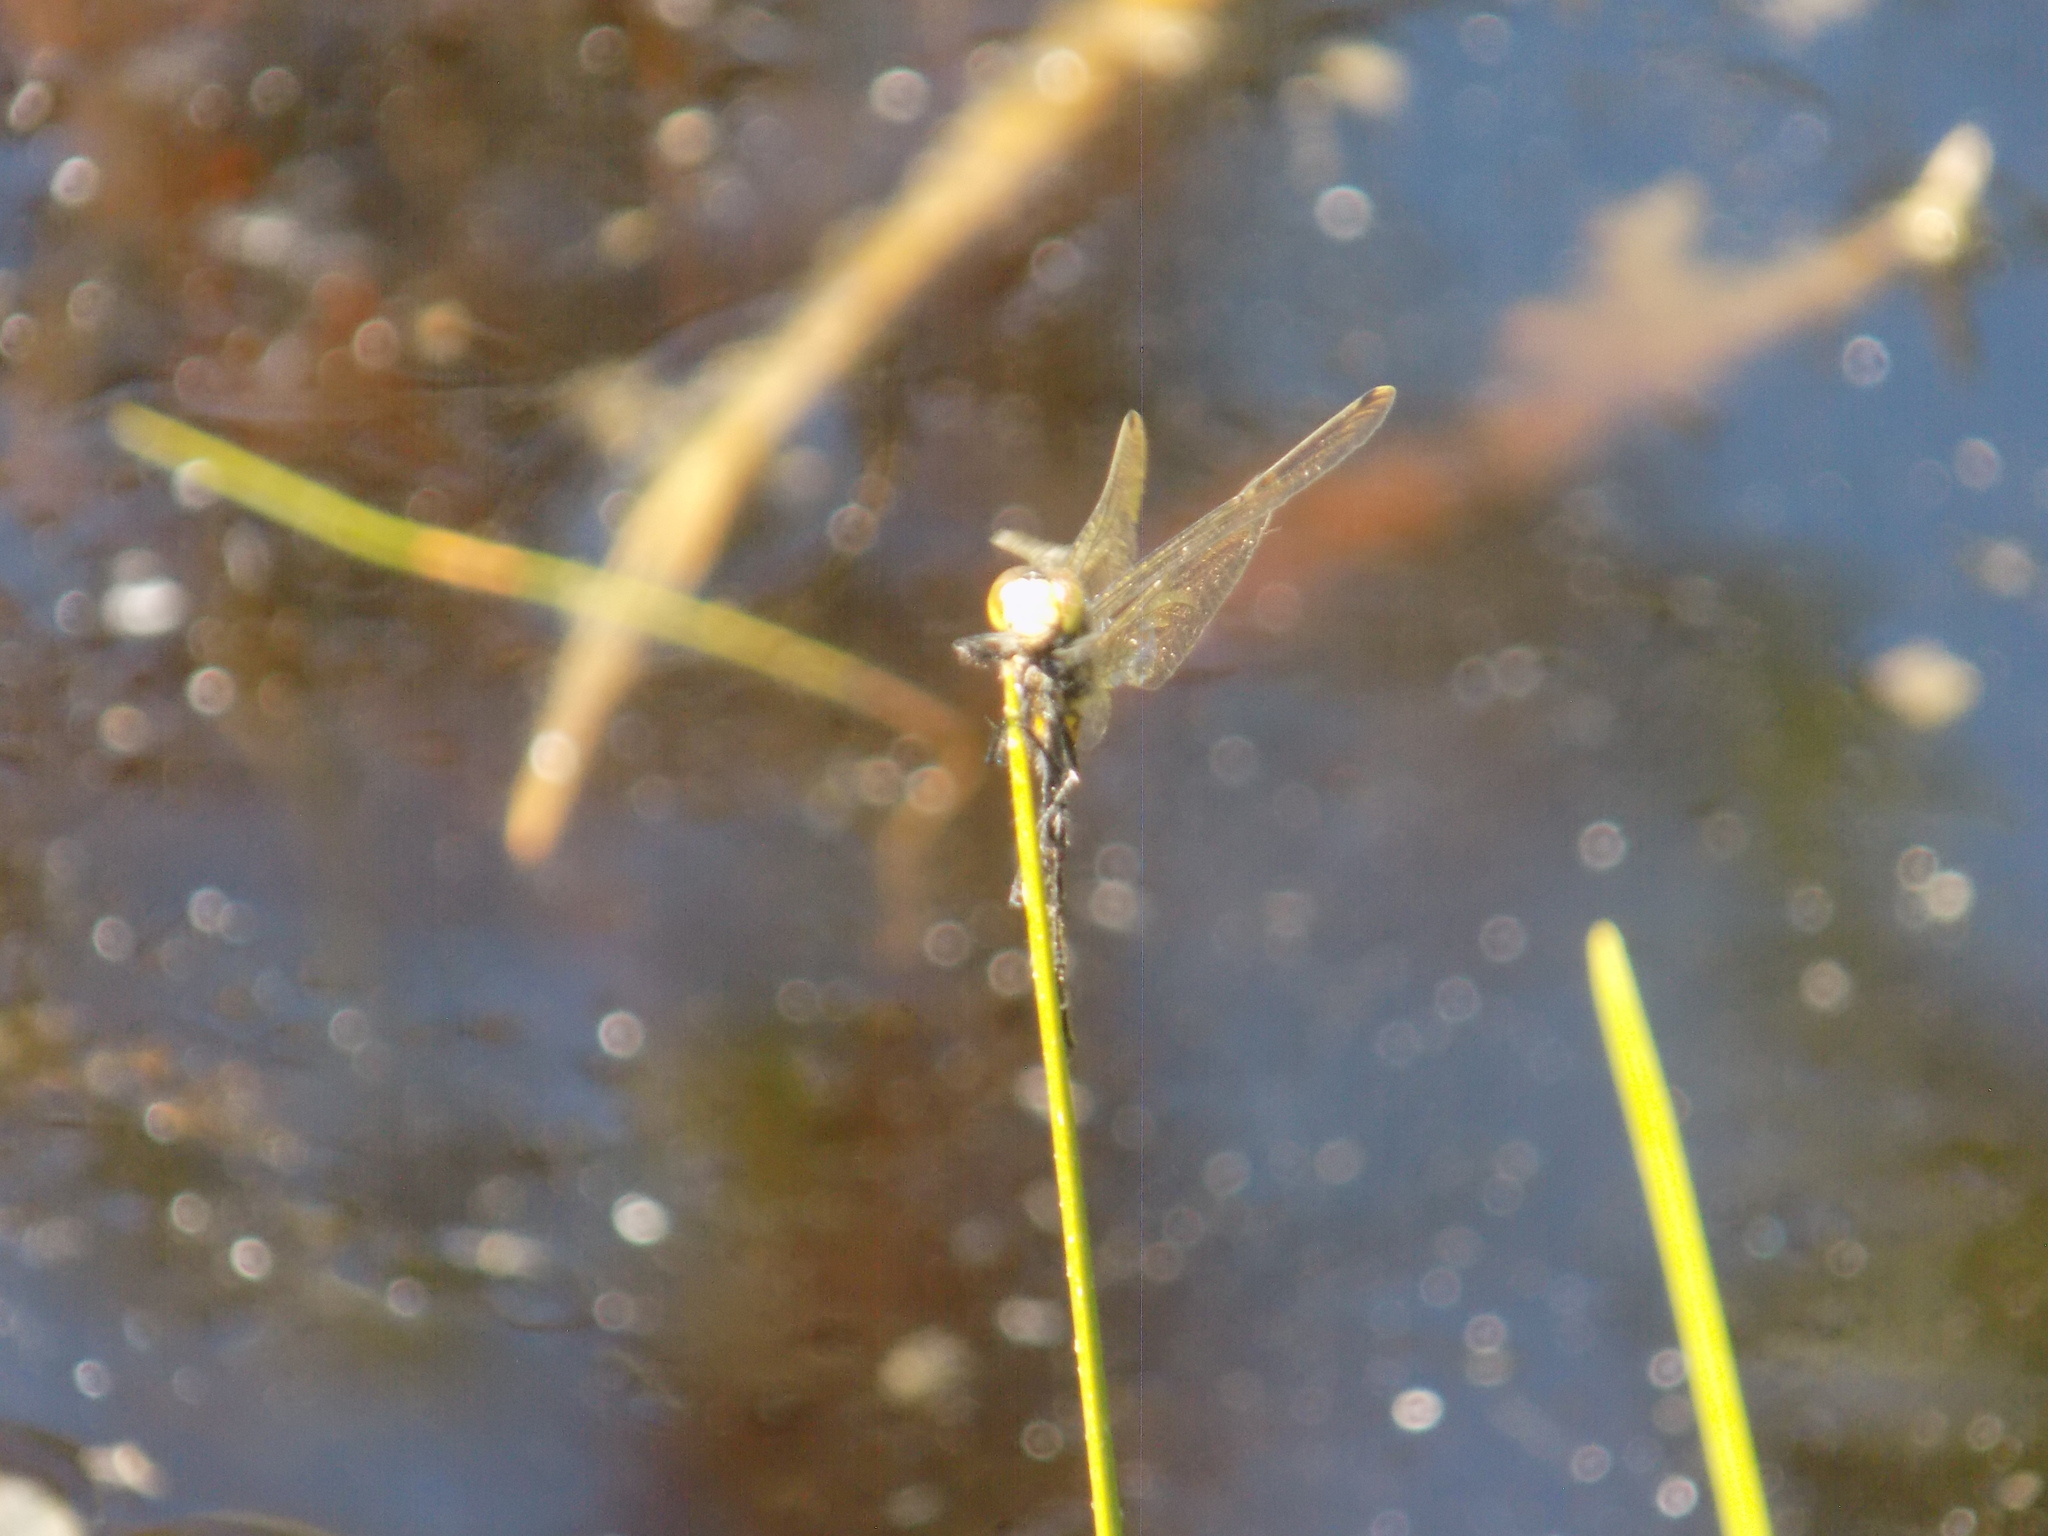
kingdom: Animalia
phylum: Arthropoda
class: Insecta
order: Odonata
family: Libellulidae
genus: Leucorrhinia
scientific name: Leucorrhinia
